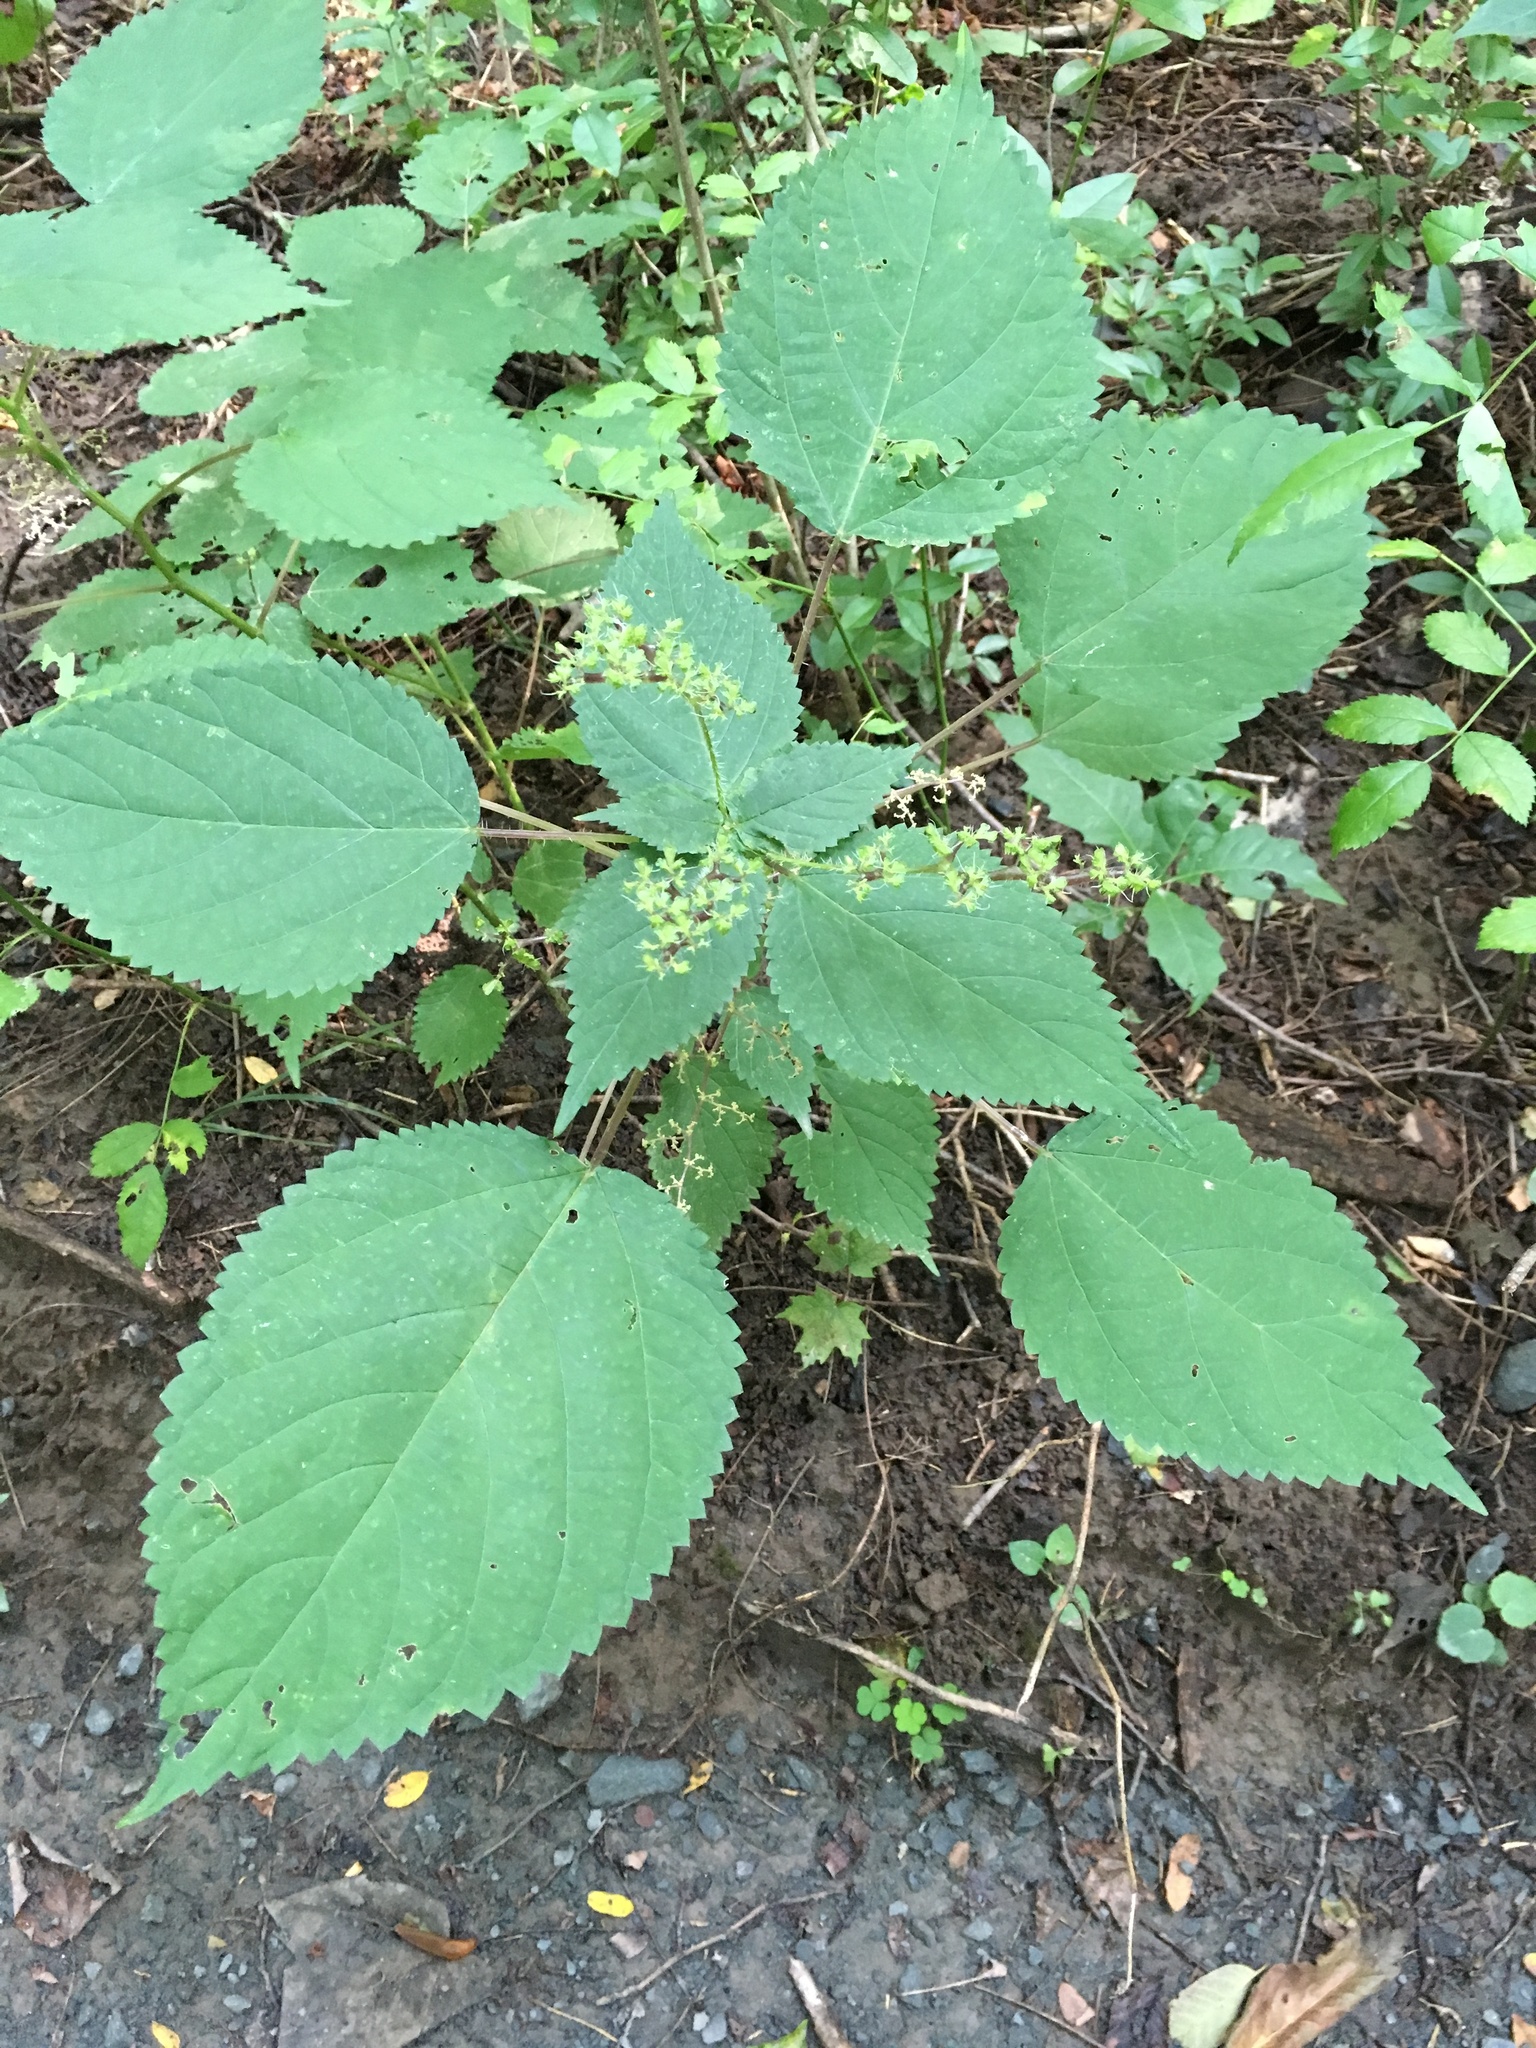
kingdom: Plantae
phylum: Tracheophyta
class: Magnoliopsida
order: Rosales
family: Urticaceae
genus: Laportea
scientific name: Laportea canadensis
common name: Canada nettle
